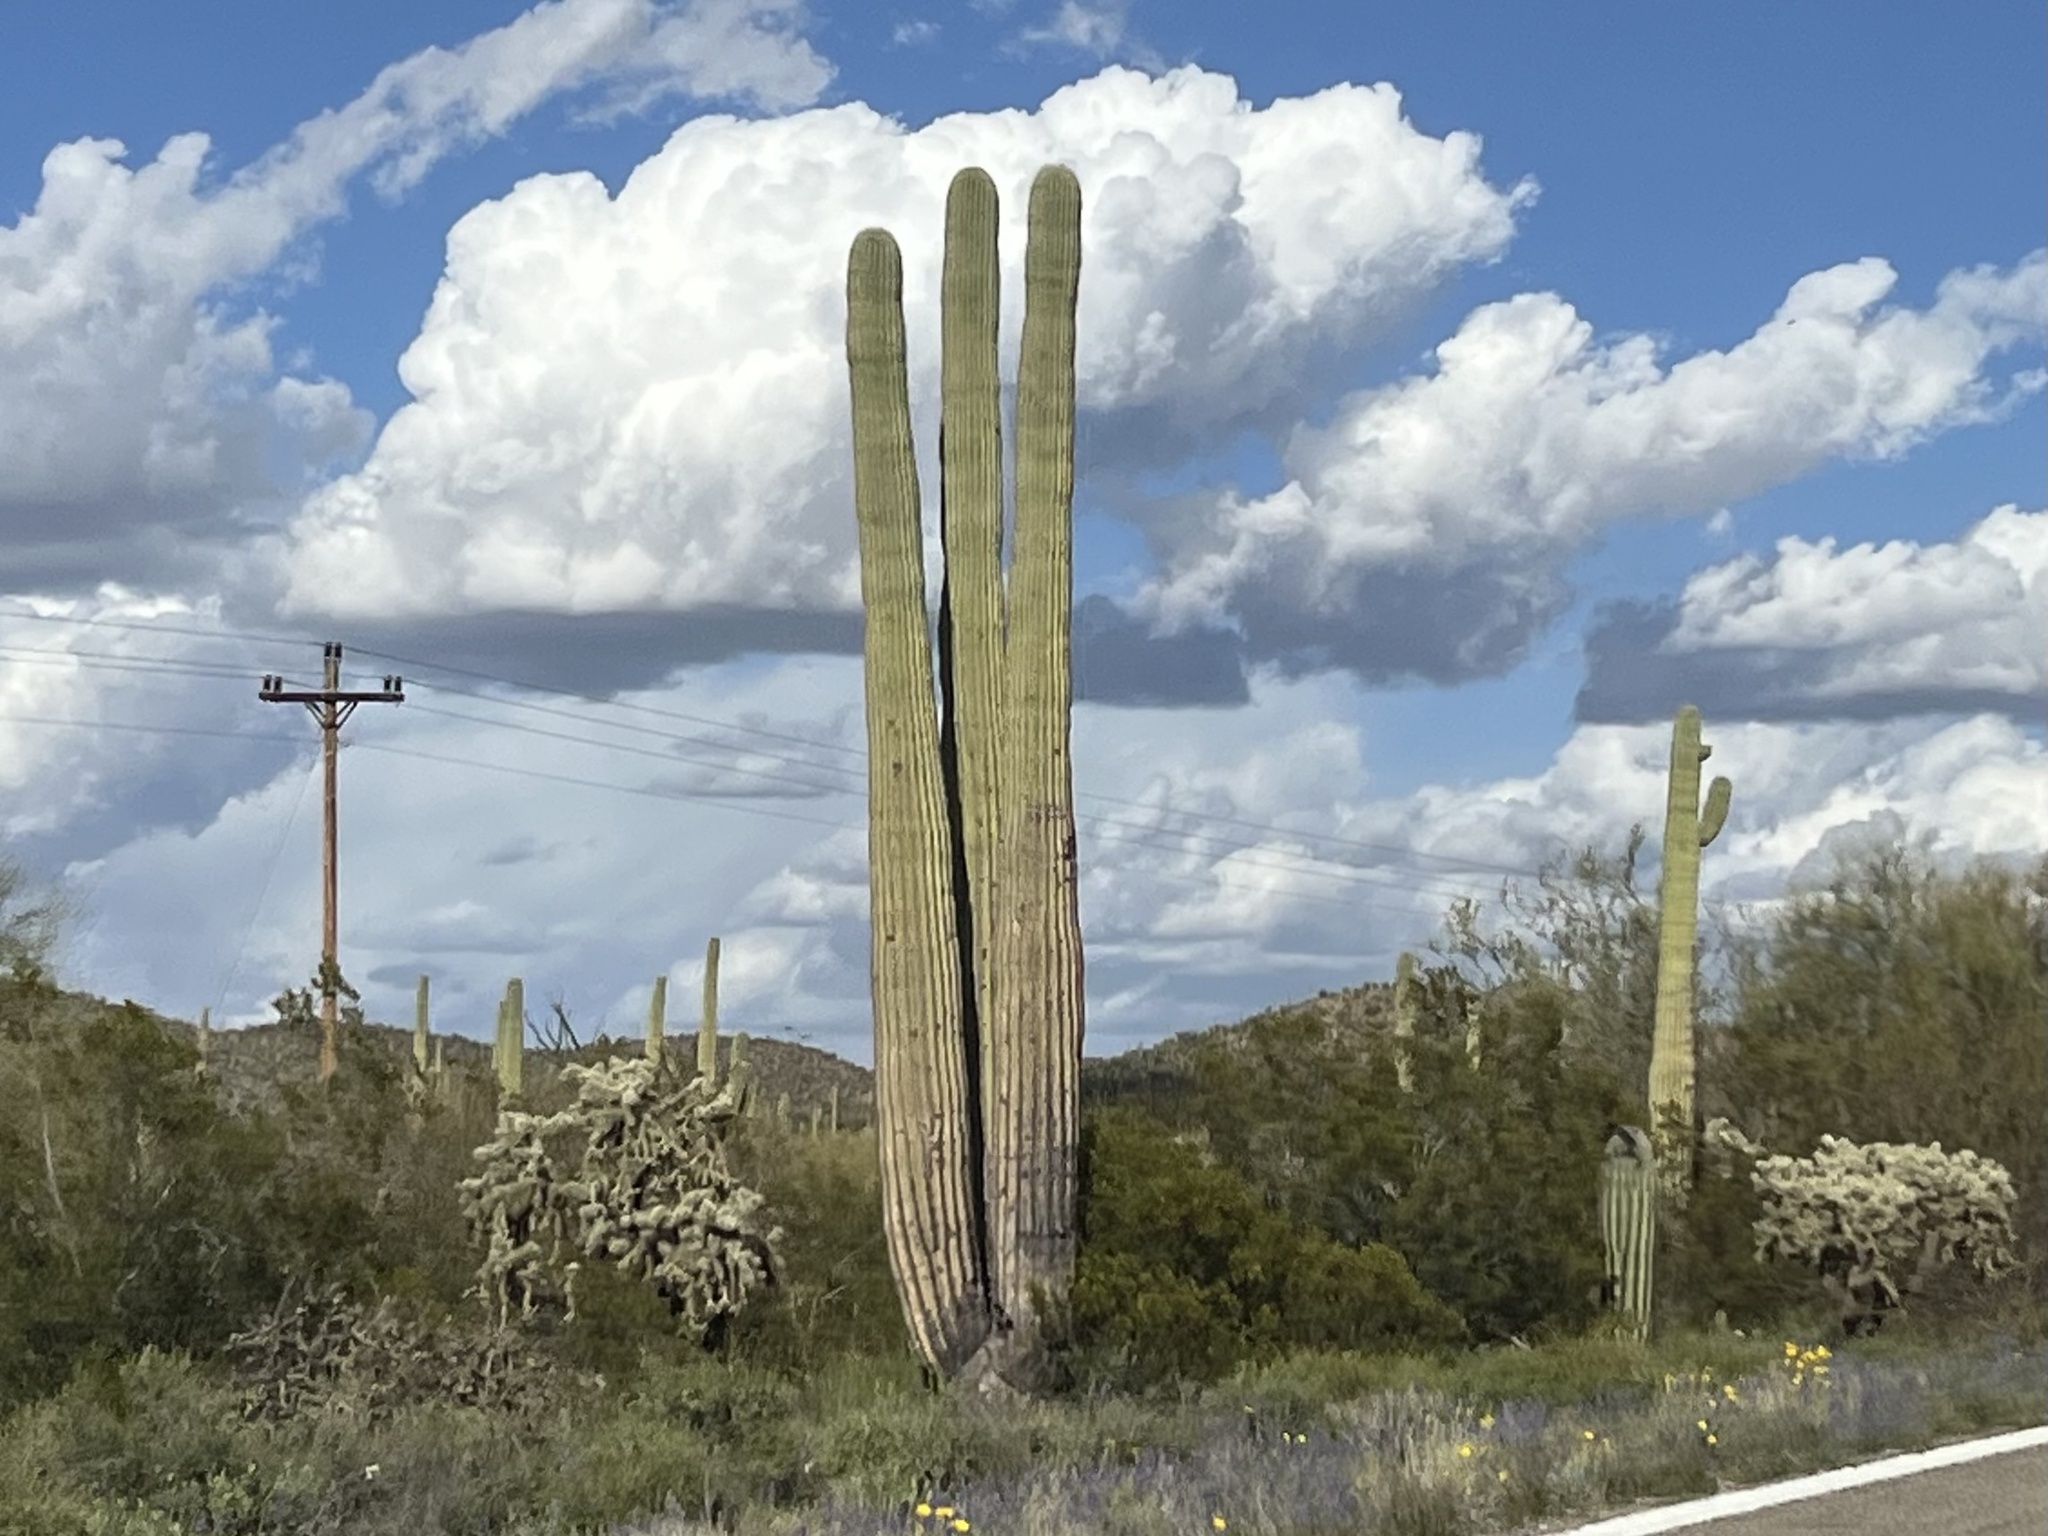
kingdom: Plantae
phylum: Tracheophyta
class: Magnoliopsida
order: Caryophyllales
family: Cactaceae
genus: Carnegiea
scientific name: Carnegiea gigantea
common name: Saguaro
